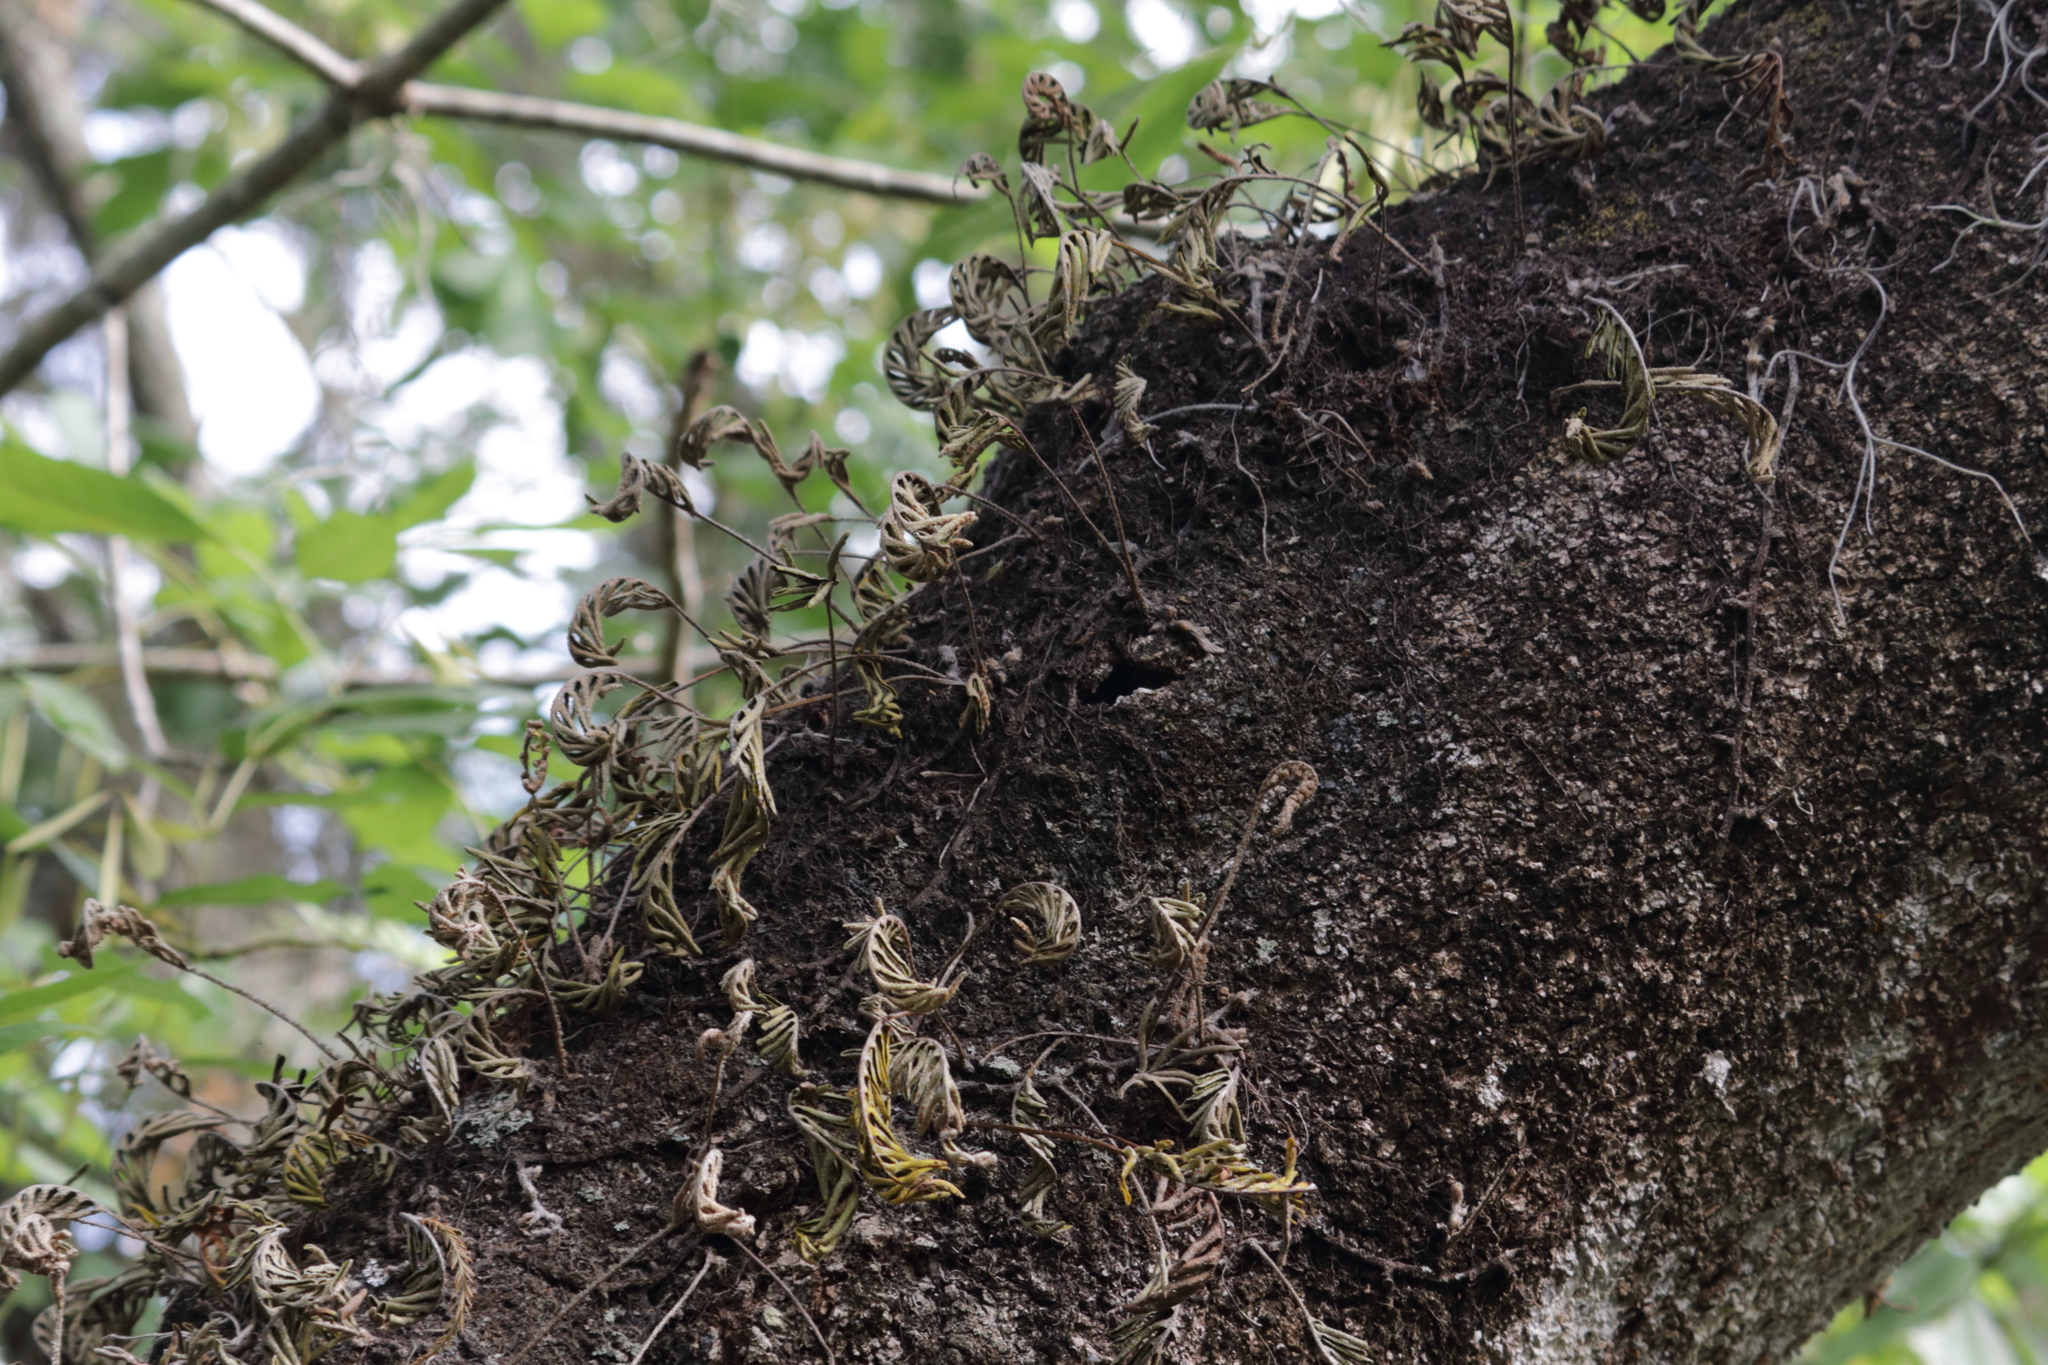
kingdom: Plantae
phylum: Tracheophyta
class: Polypodiopsida
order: Polypodiales
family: Polypodiaceae
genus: Pleopeltis
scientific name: Pleopeltis michauxiana
